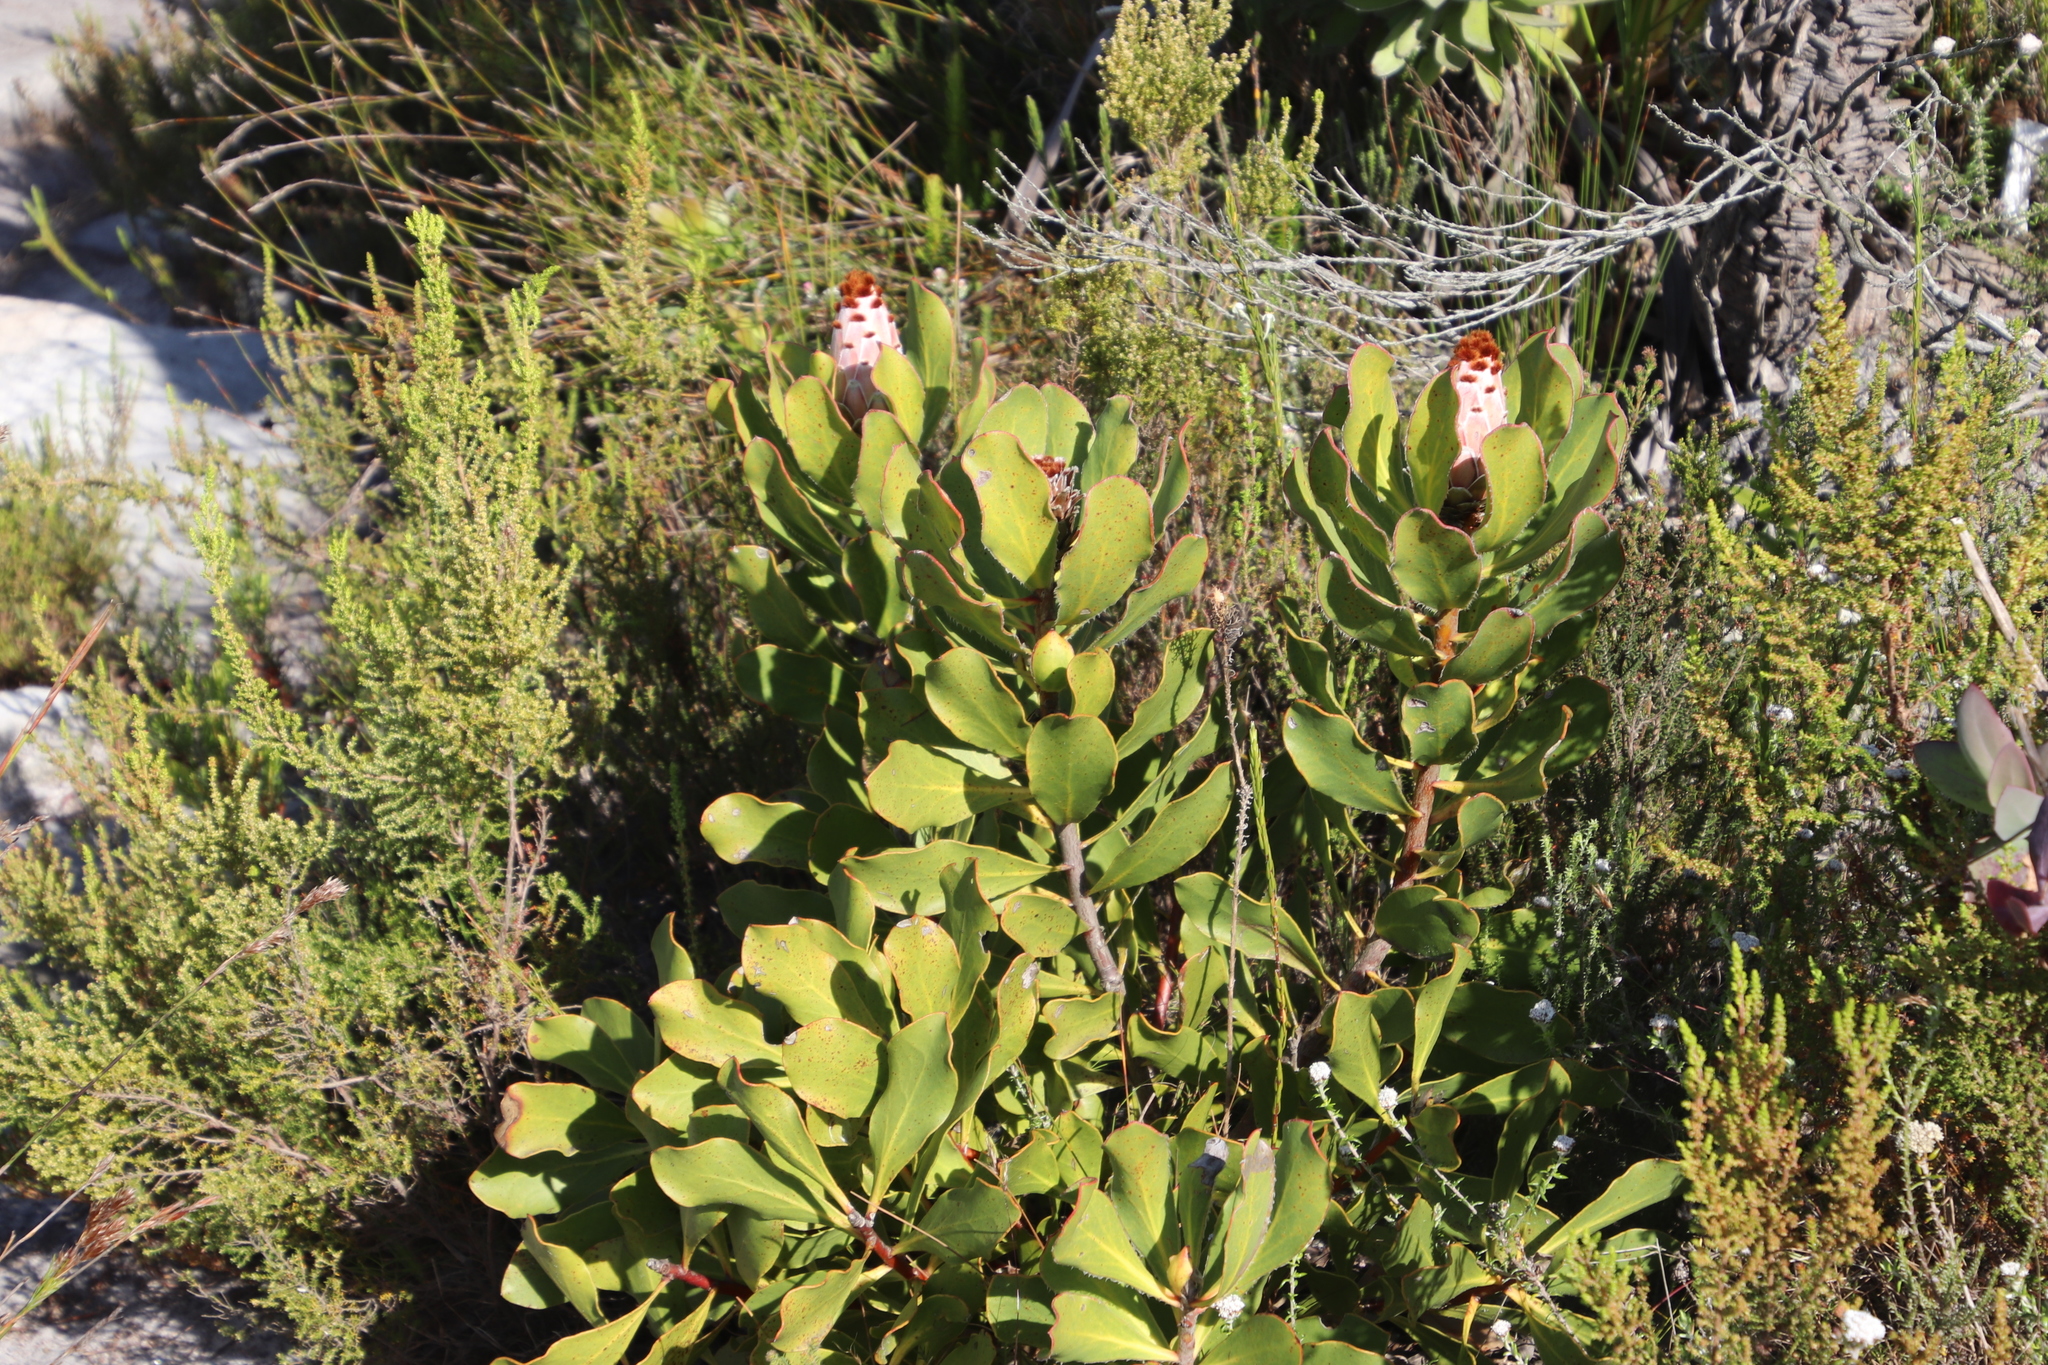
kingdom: Plantae
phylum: Tracheophyta
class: Magnoliopsida
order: Proteales
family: Proteaceae
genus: Protea
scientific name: Protea speciosa
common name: Brown-beard sugarbush
